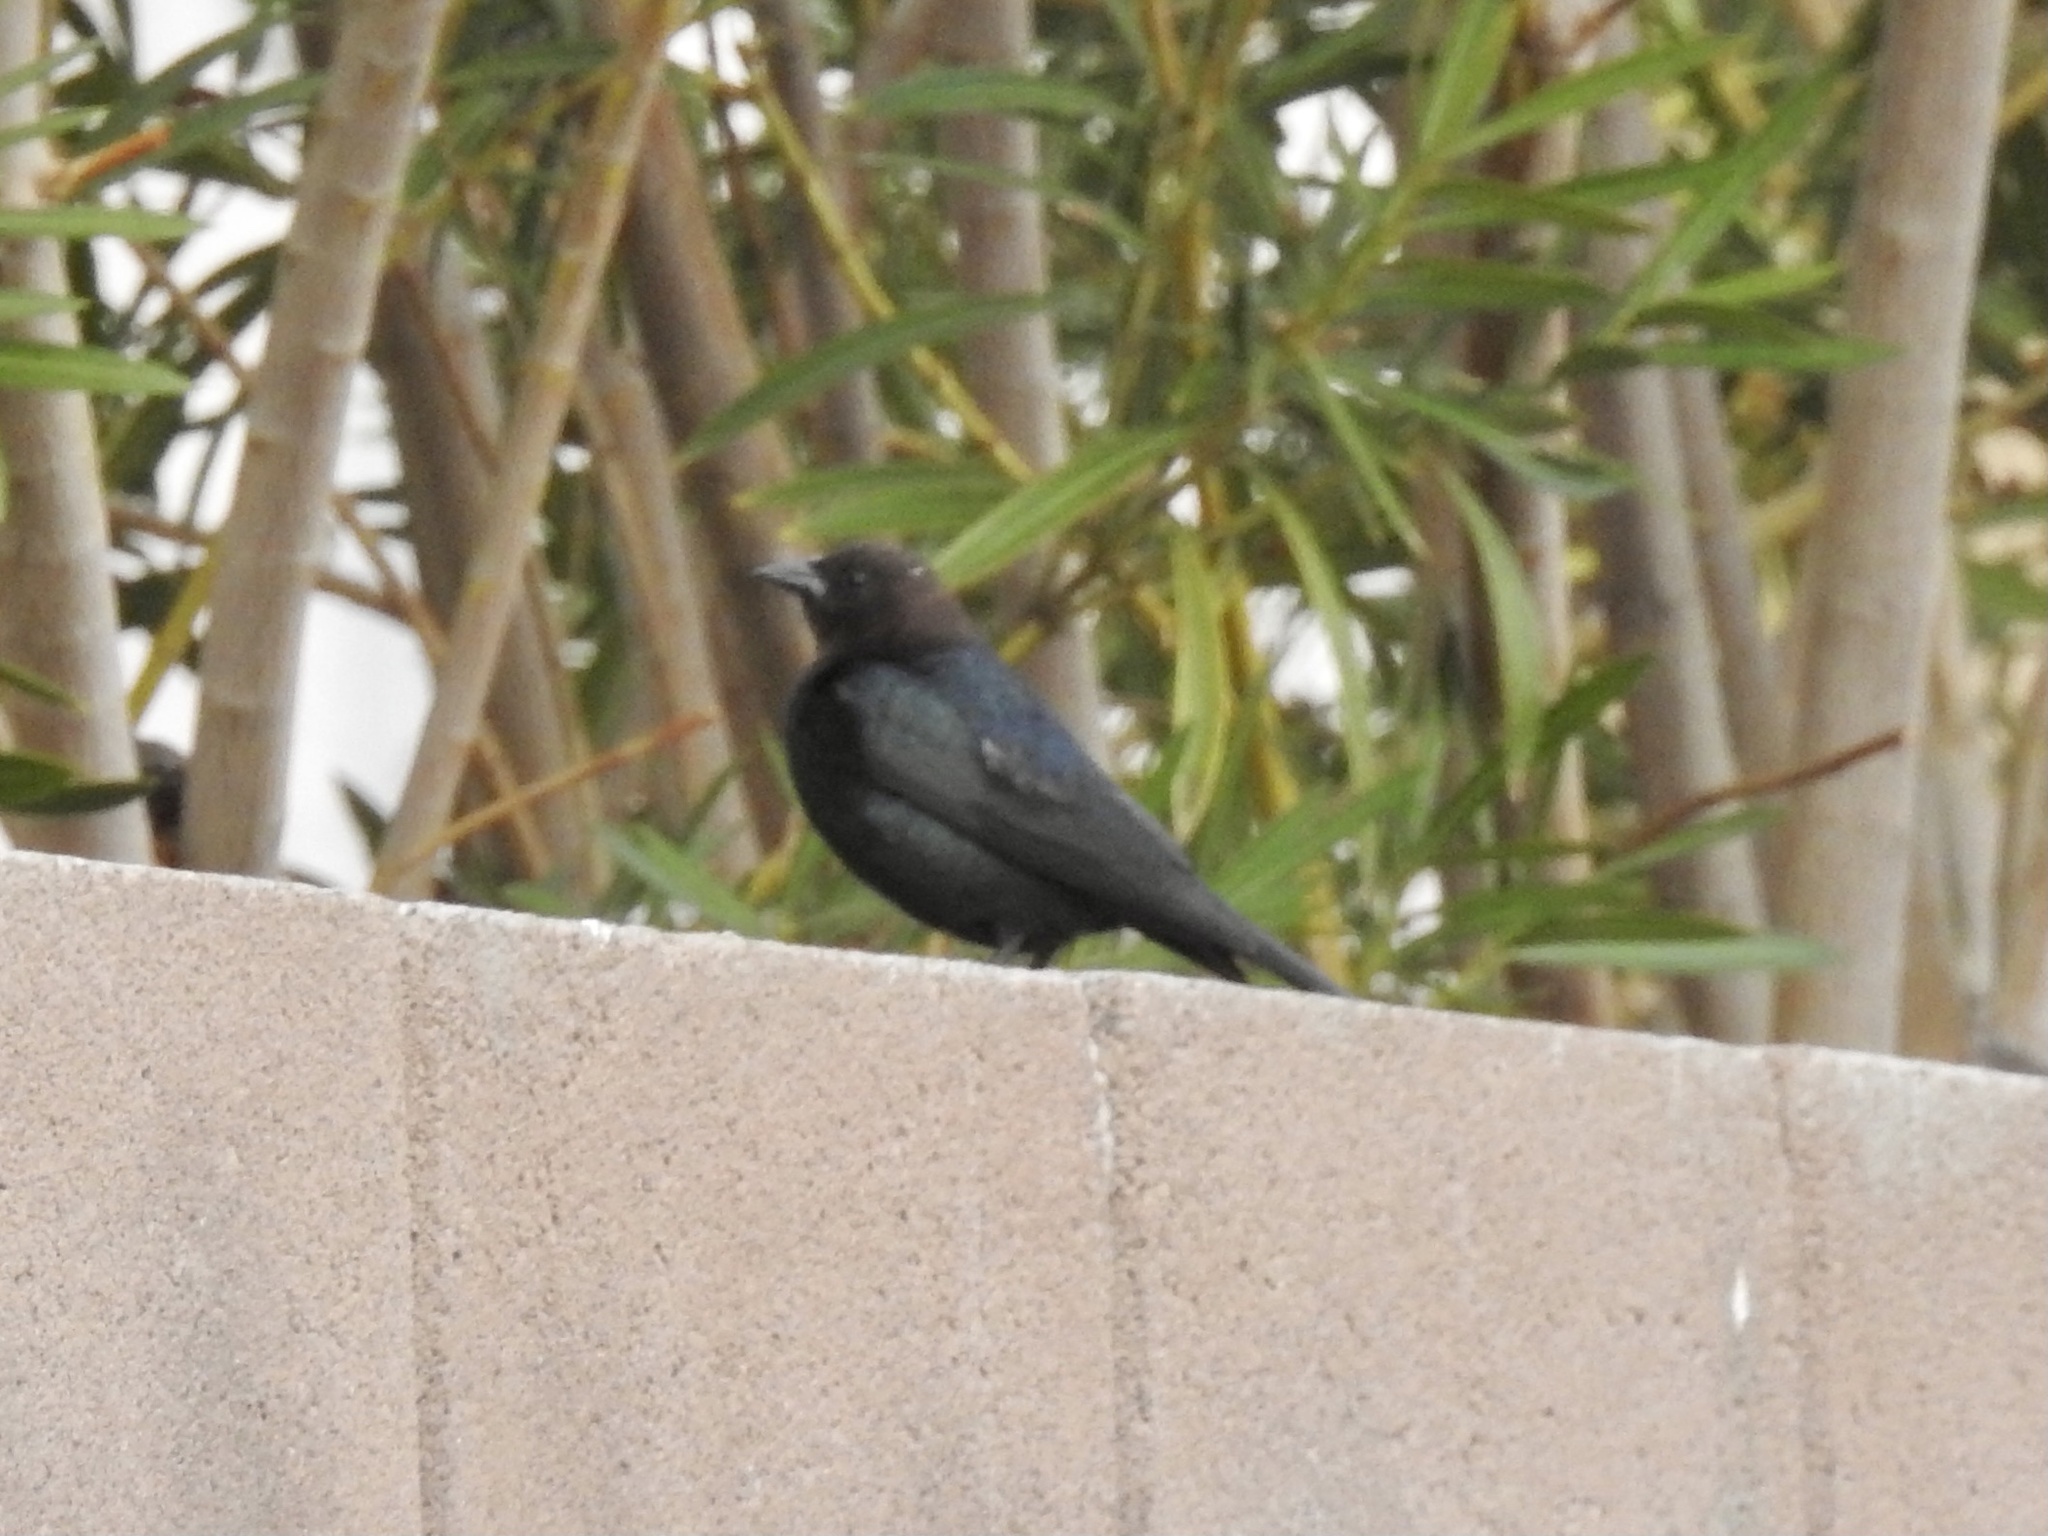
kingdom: Animalia
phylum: Chordata
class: Aves
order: Passeriformes
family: Icteridae
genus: Molothrus
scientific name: Molothrus ater
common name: Brown-headed cowbird
